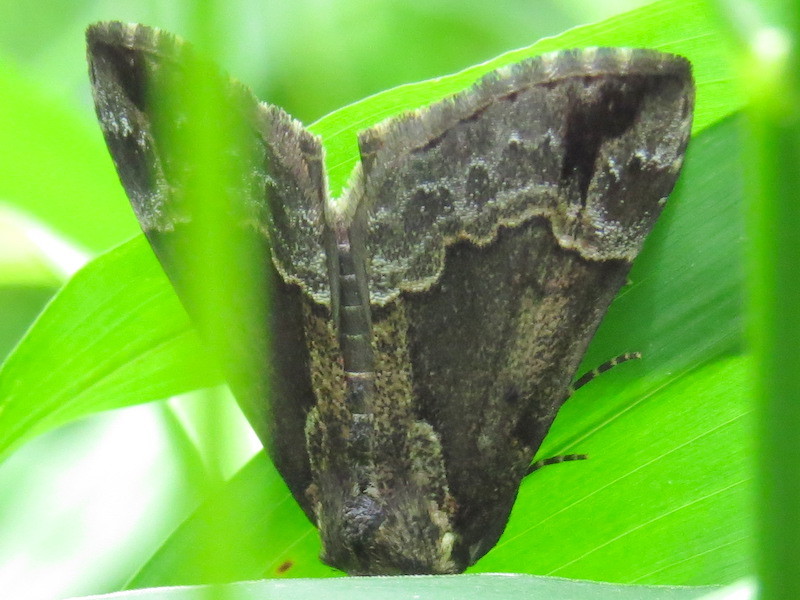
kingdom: Animalia
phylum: Arthropoda
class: Insecta
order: Lepidoptera
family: Erebidae
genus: Hypena
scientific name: Hypena baltimoralis
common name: Baltimore snout
